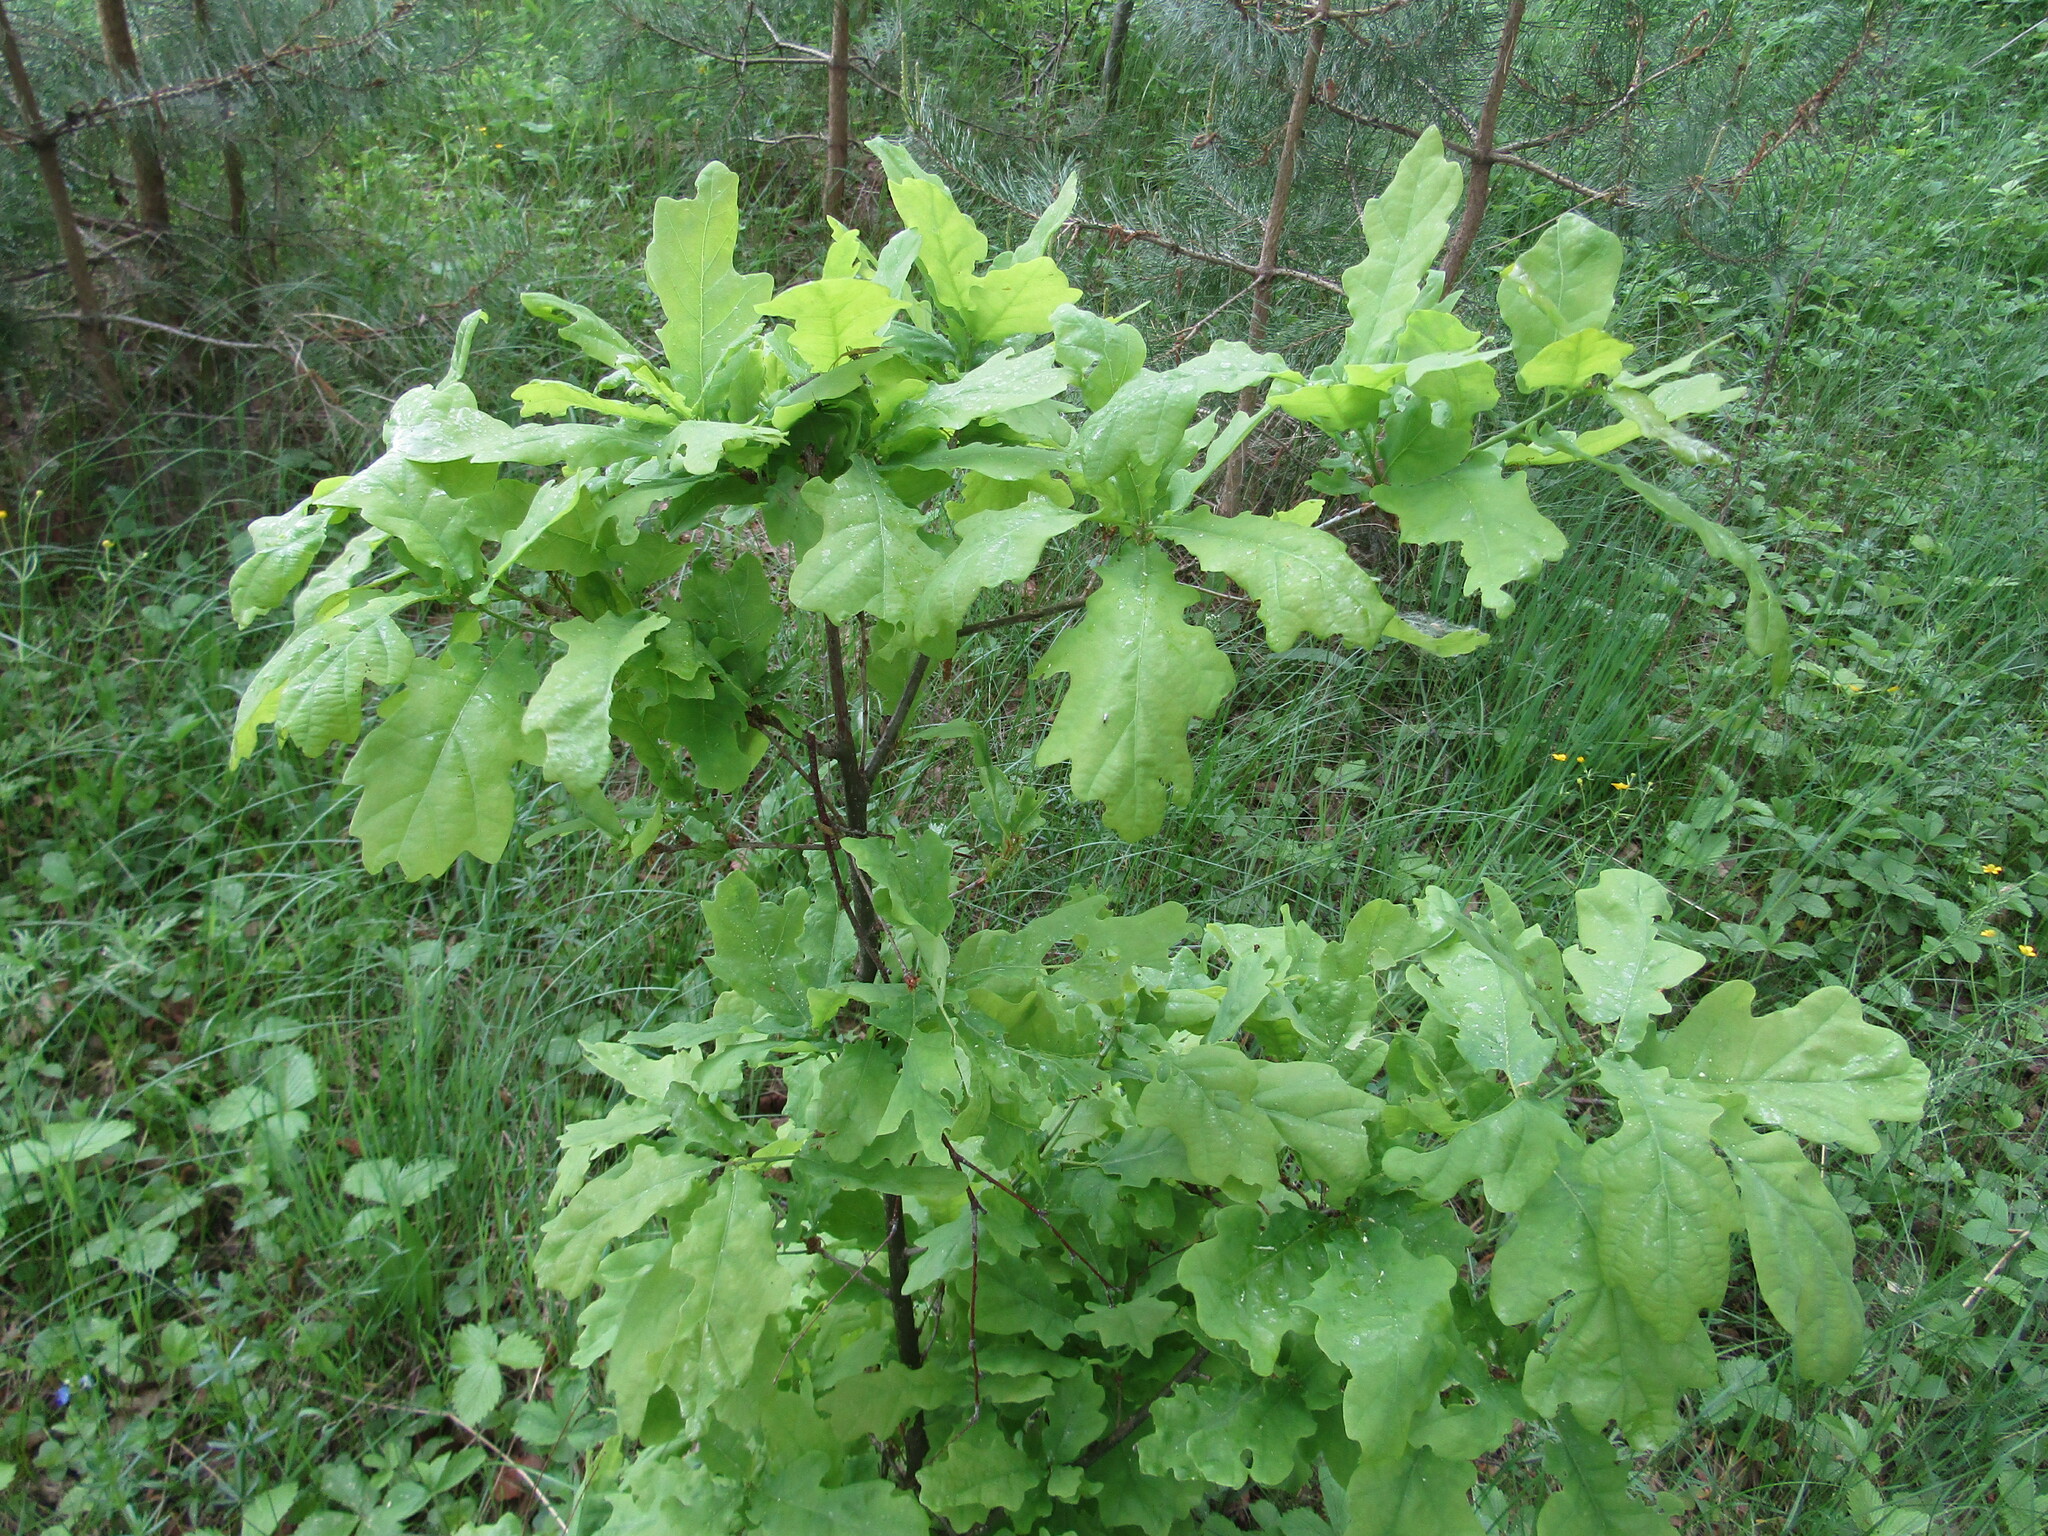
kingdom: Plantae
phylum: Tracheophyta
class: Magnoliopsida
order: Fagales
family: Fagaceae
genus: Quercus
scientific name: Quercus robur
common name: Pedunculate oak
